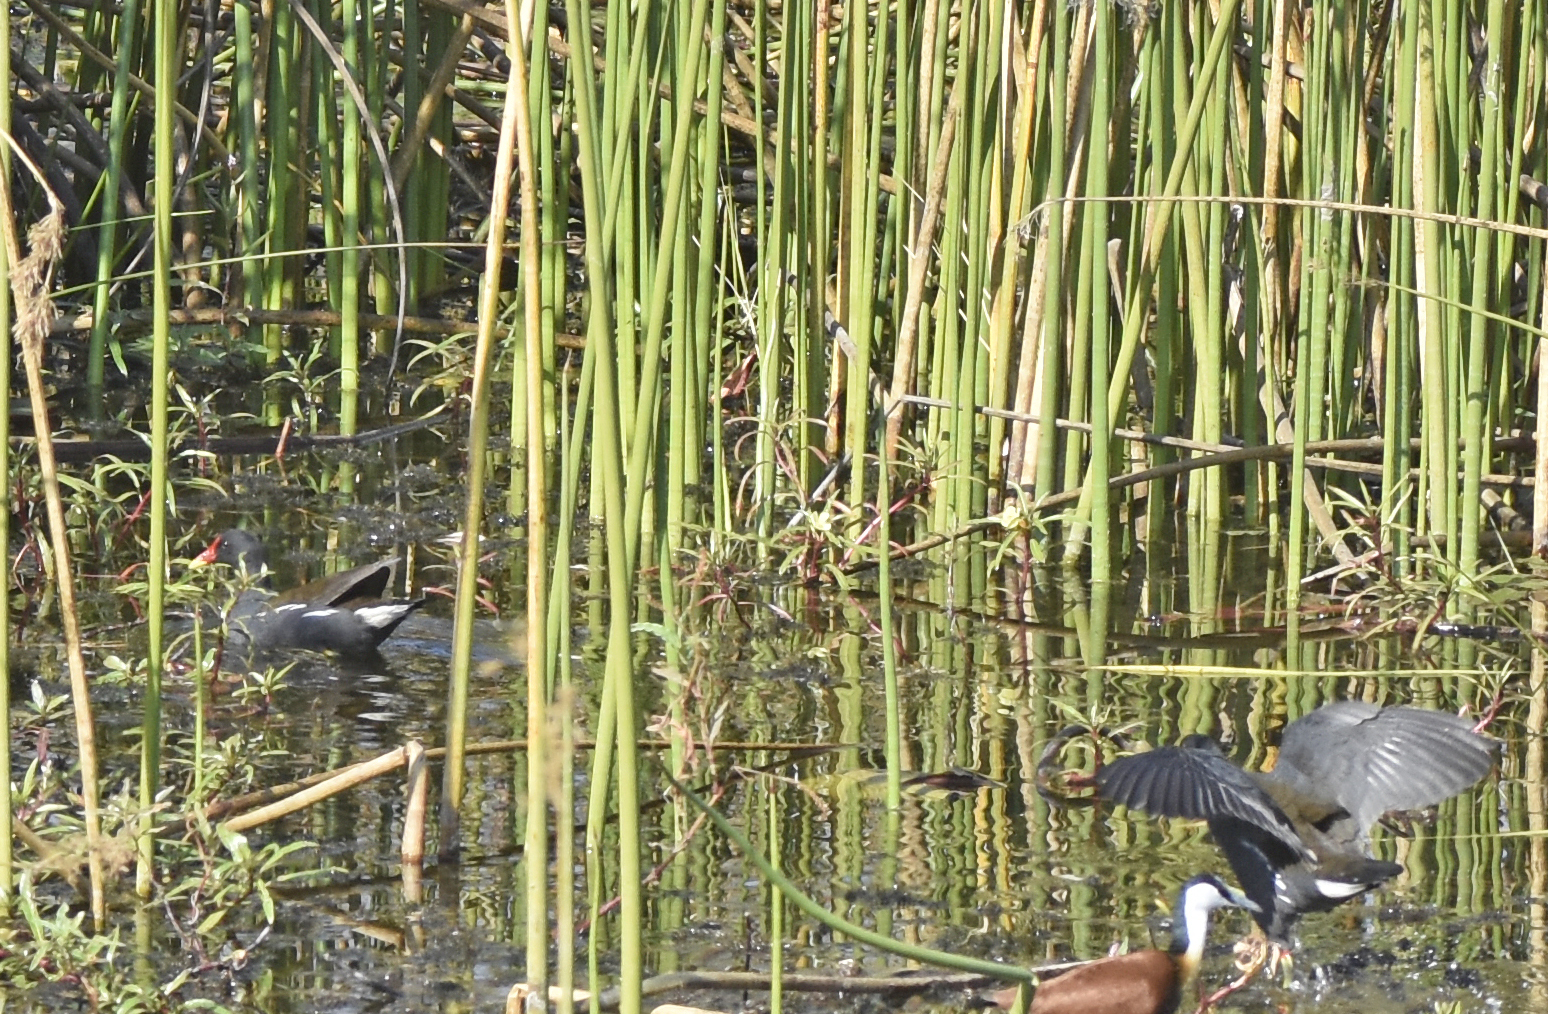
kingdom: Animalia
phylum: Chordata
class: Aves
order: Gruiformes
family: Rallidae
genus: Gallinula
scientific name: Gallinula chloropus
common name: Common moorhen
